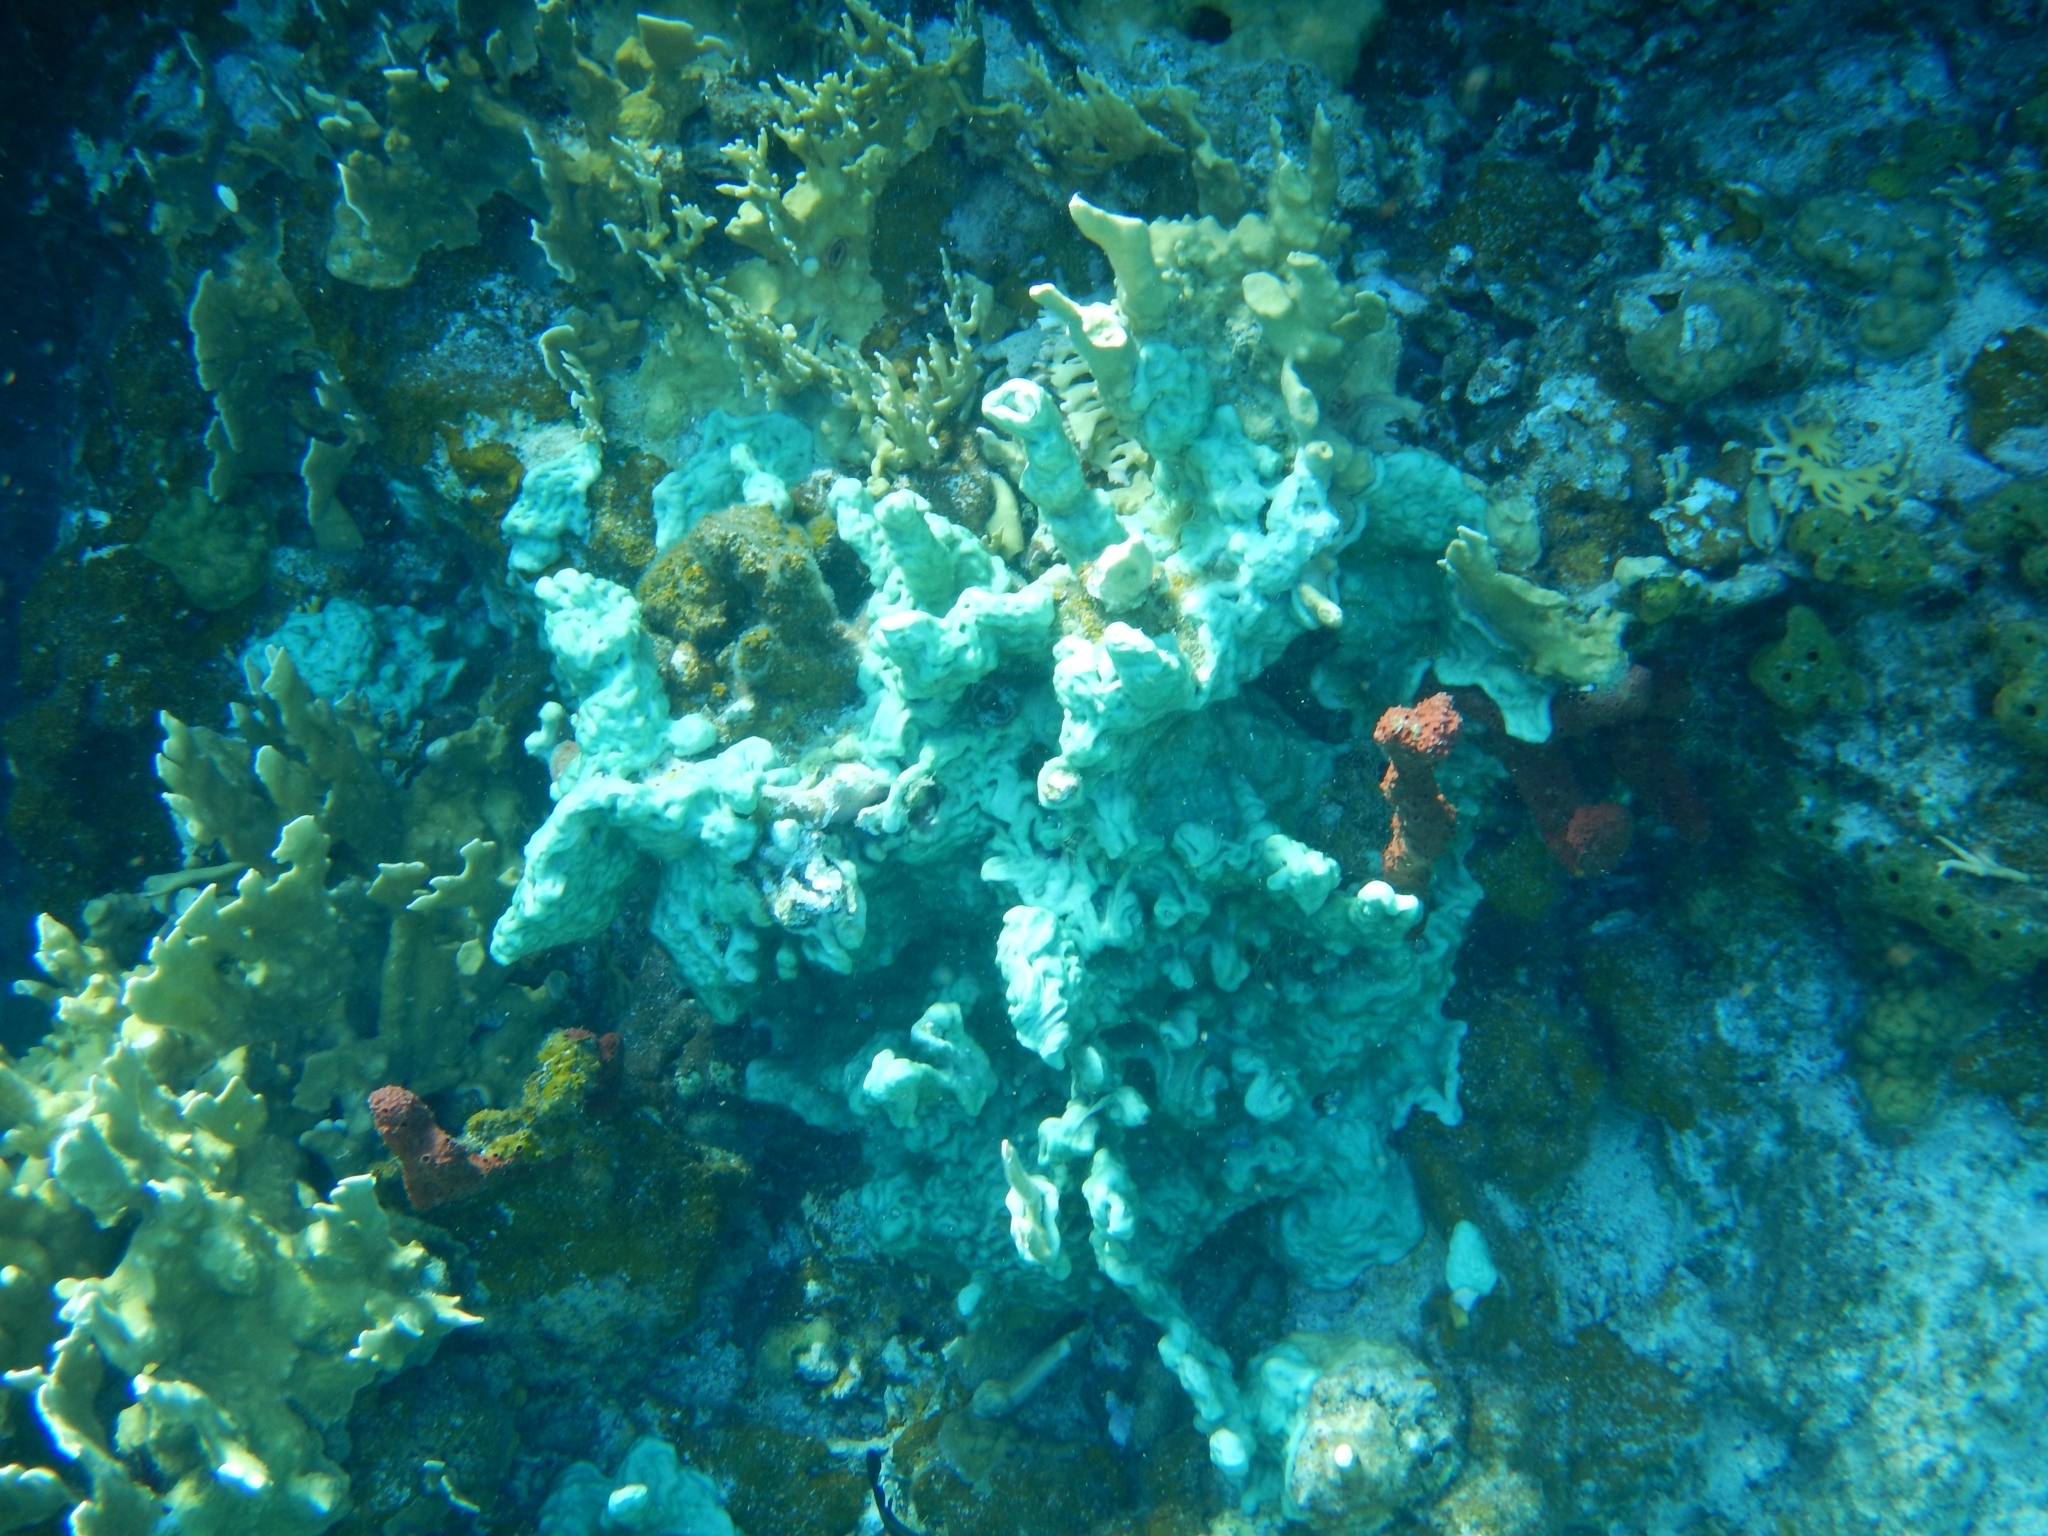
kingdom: Animalia
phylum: Chordata
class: Ascidiacea
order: Aplousobranchia
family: Didemnidae
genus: Trididemnum
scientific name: Trididemnum solidum
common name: Overgrowing mat tunicate
